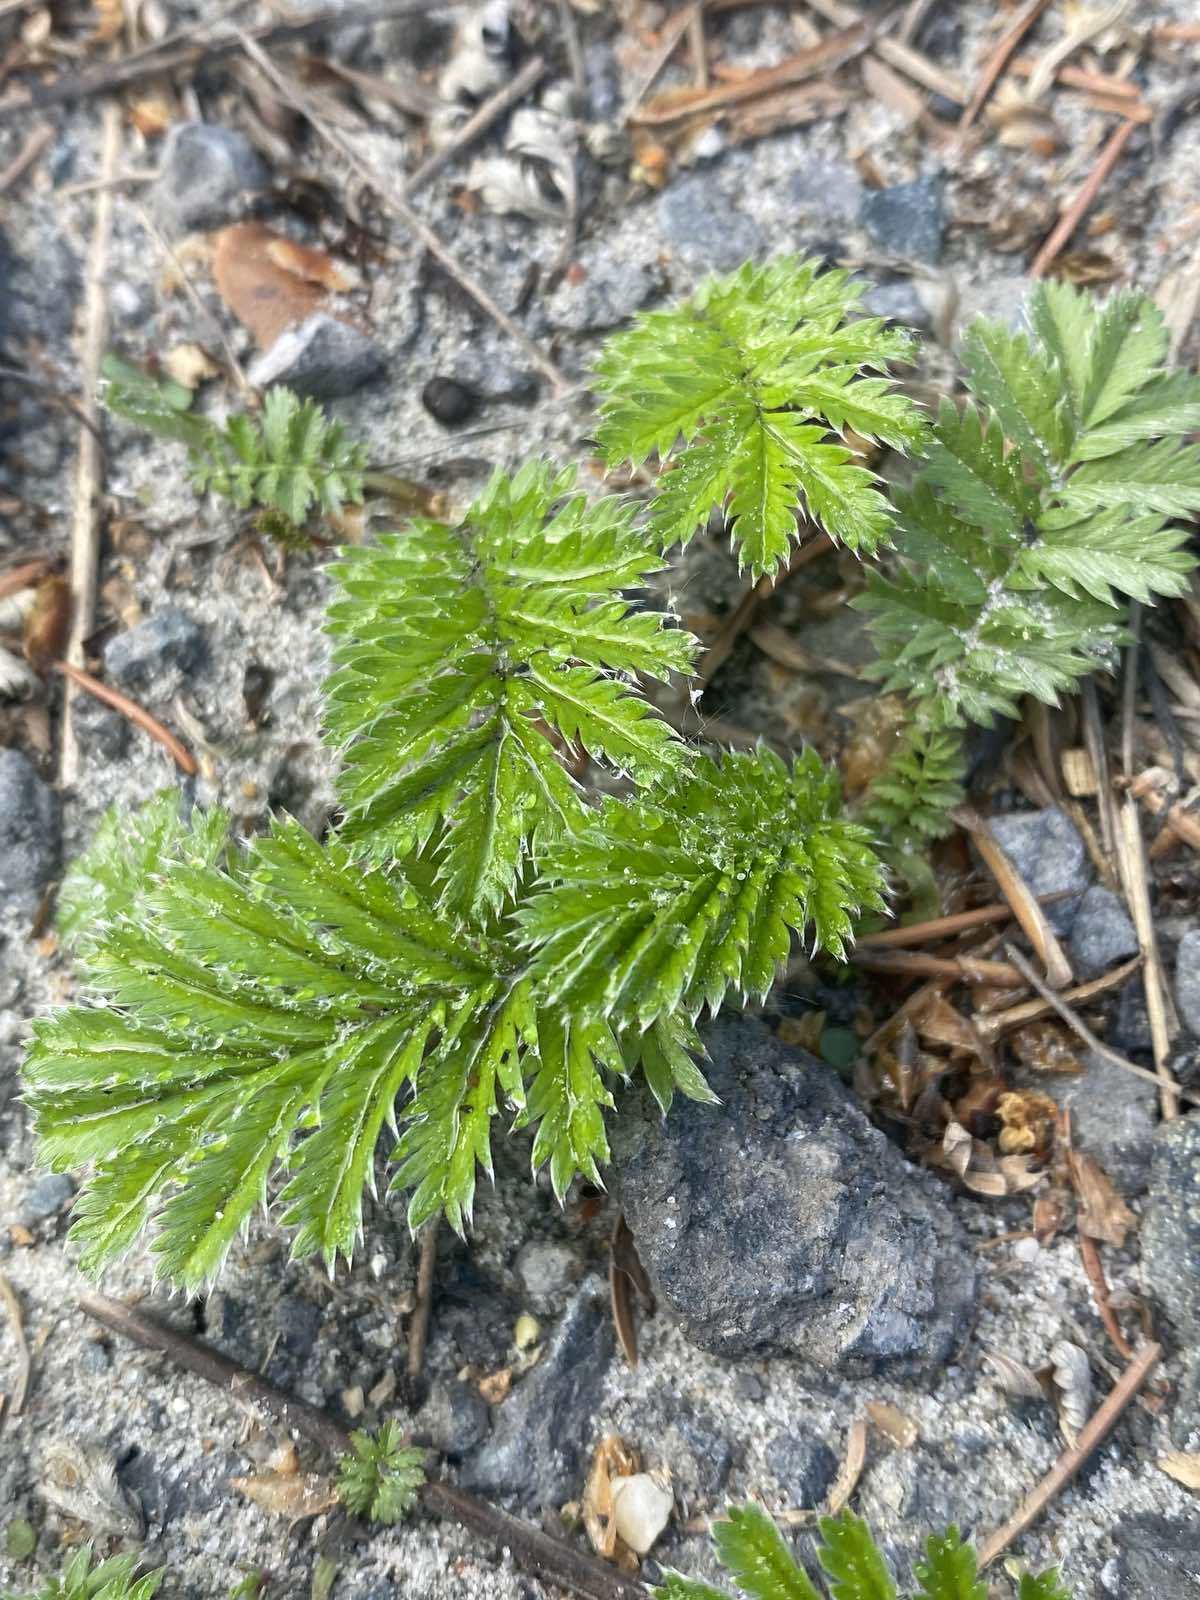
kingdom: Plantae
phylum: Tracheophyta
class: Magnoliopsida
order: Rosales
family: Rosaceae
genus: Argentina
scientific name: Argentina anserina
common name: Common silverweed
